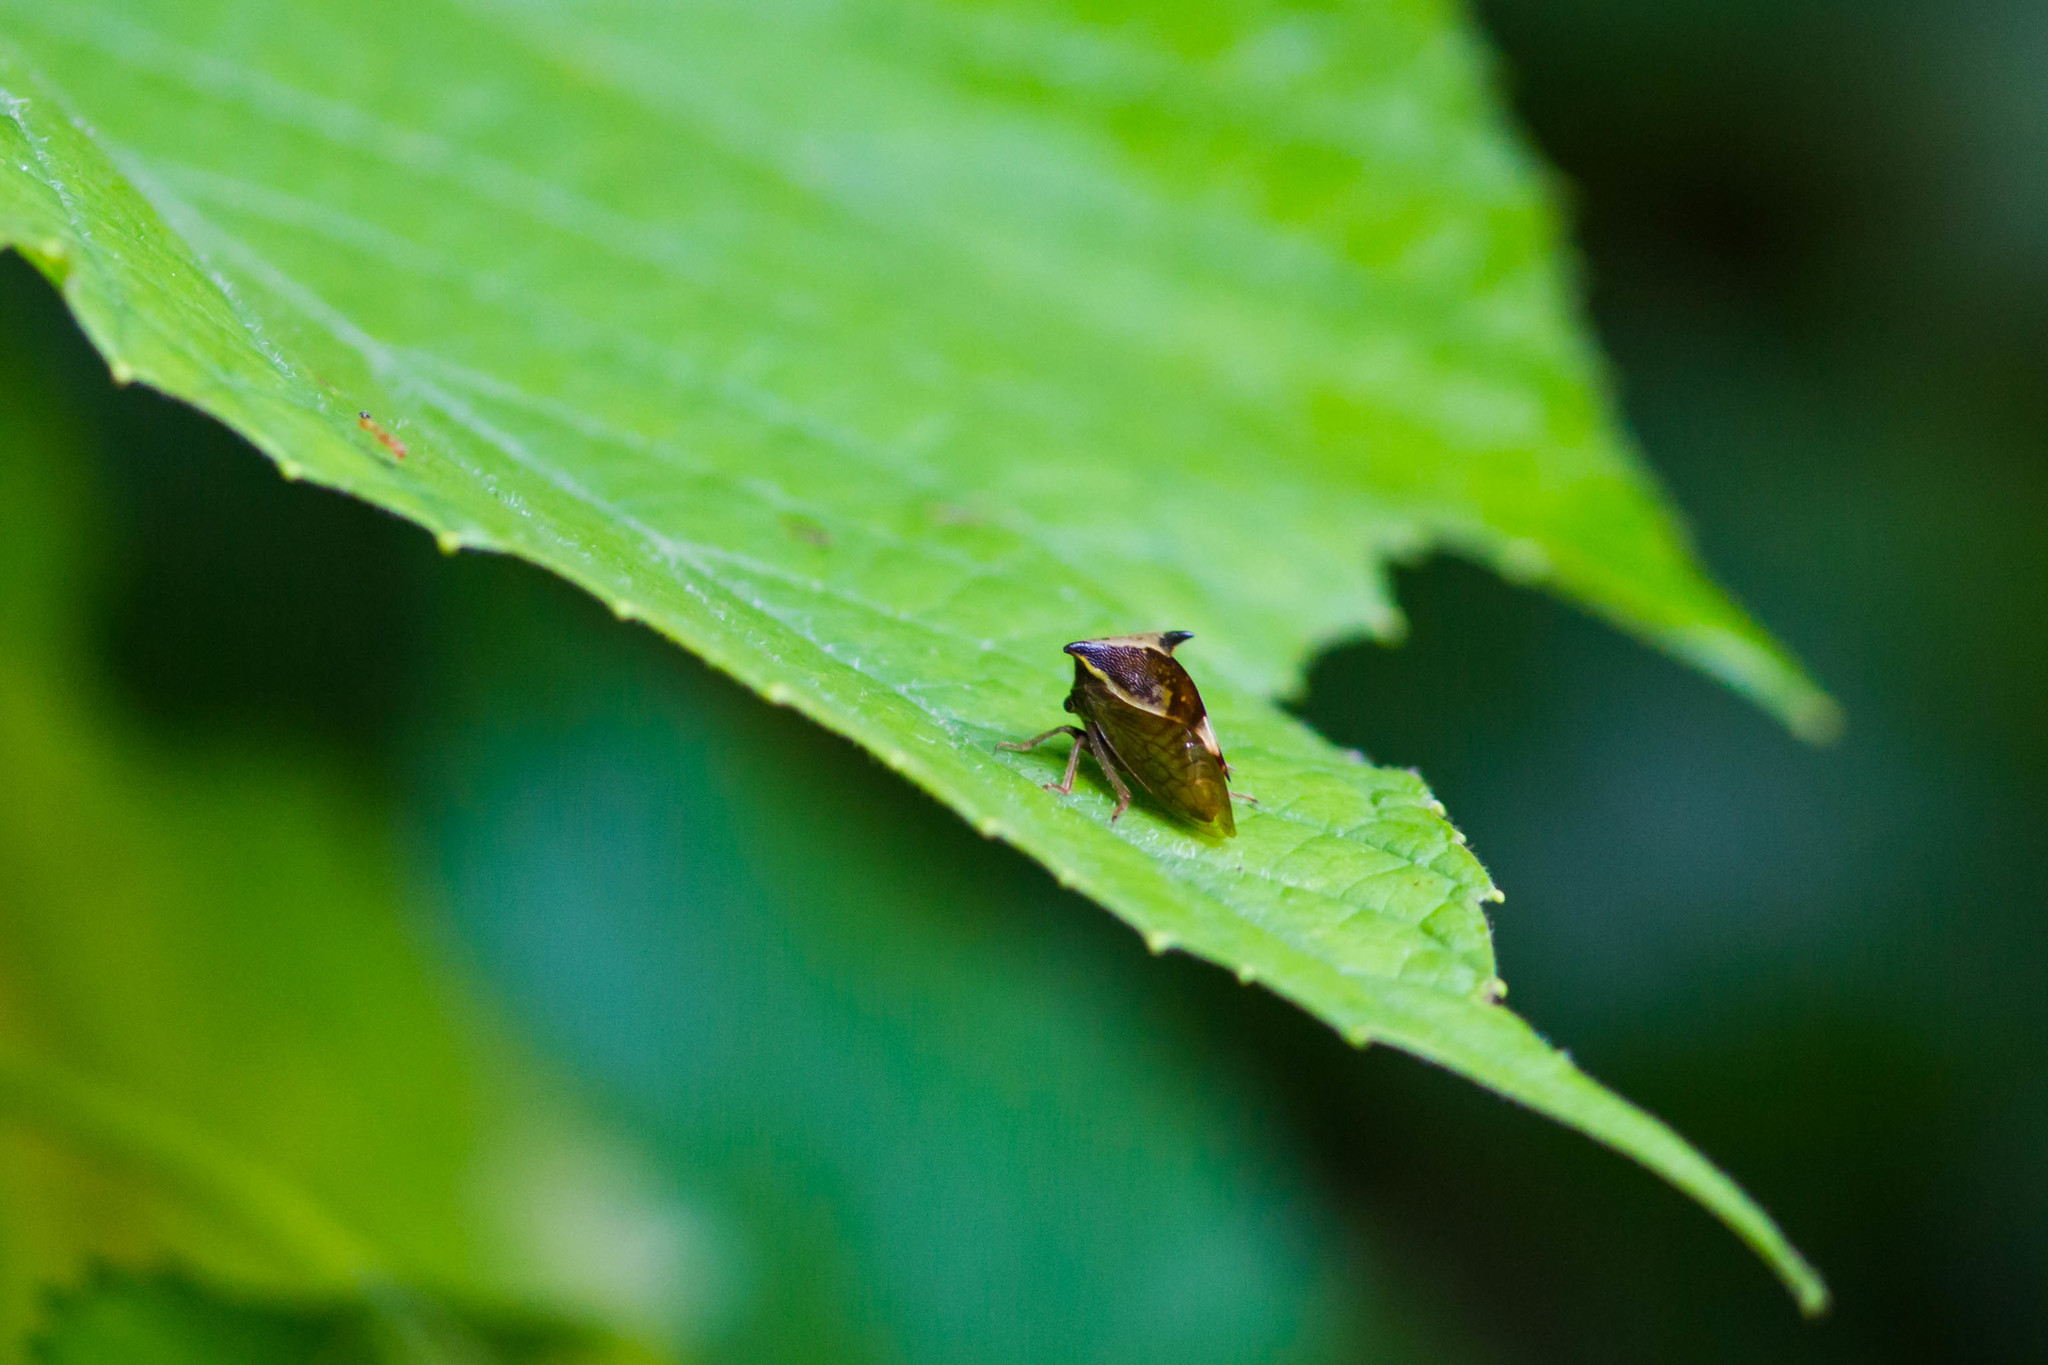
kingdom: Animalia
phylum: Arthropoda
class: Insecta
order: Hemiptera
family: Membracidae
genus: Stictocephala
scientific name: Stictocephala diceros
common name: Two-horned treehopper
